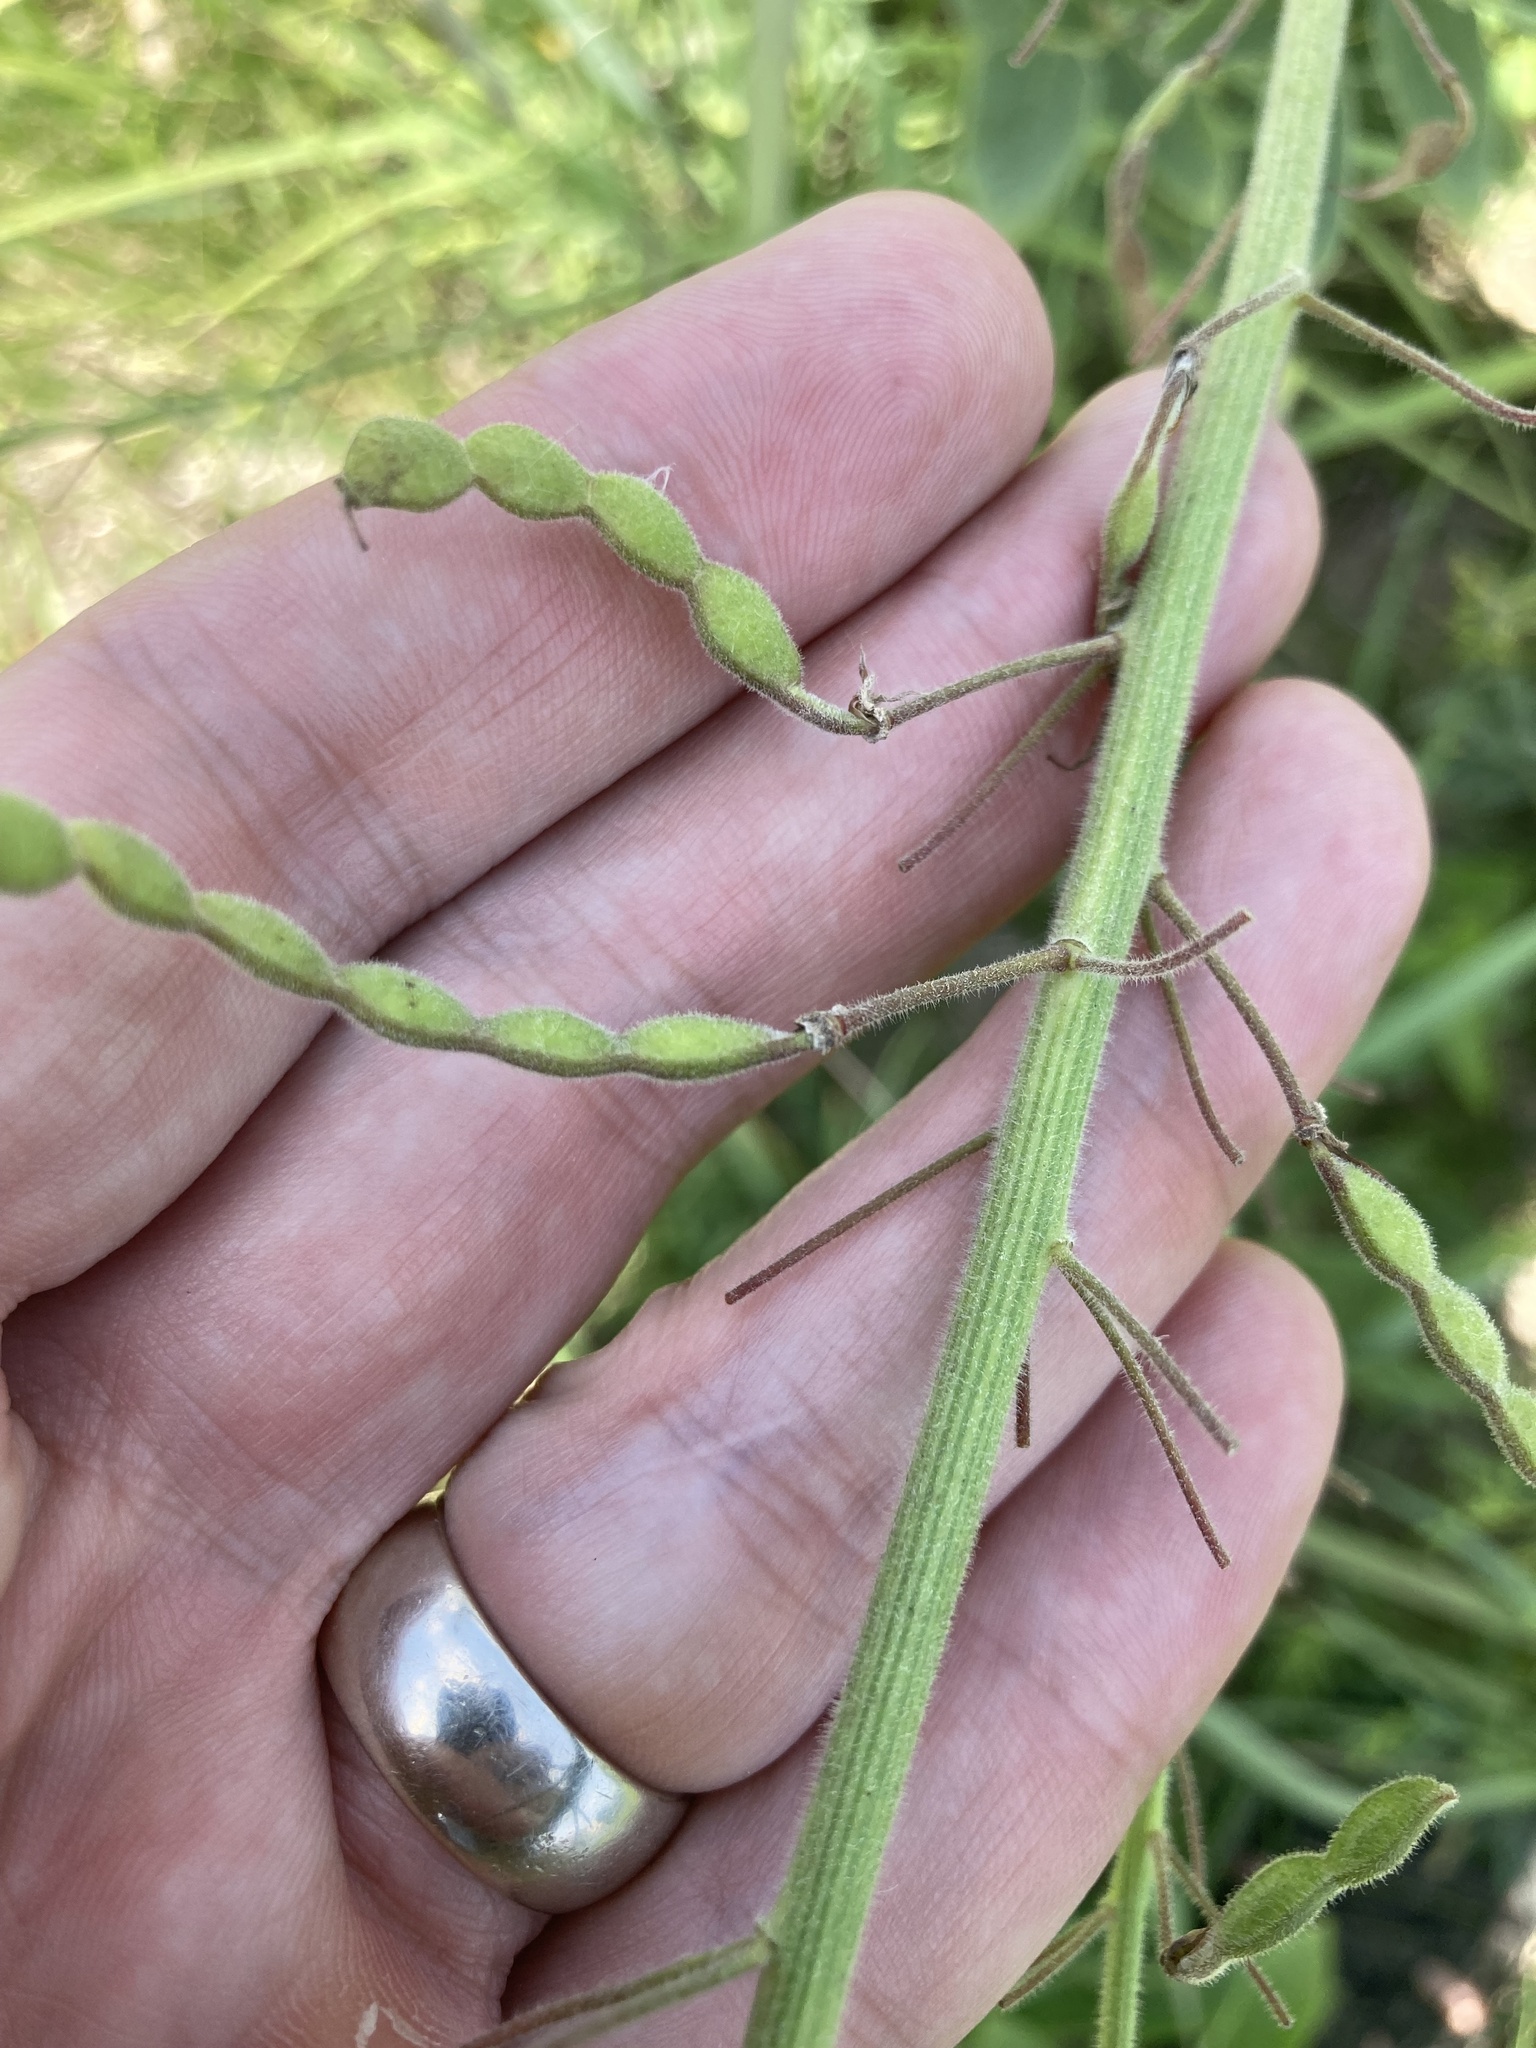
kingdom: Plantae
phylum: Tracheophyta
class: Magnoliopsida
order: Fabales
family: Fabaceae
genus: Desmodium
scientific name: Desmodium illinoense
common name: Illinois tick-clover
